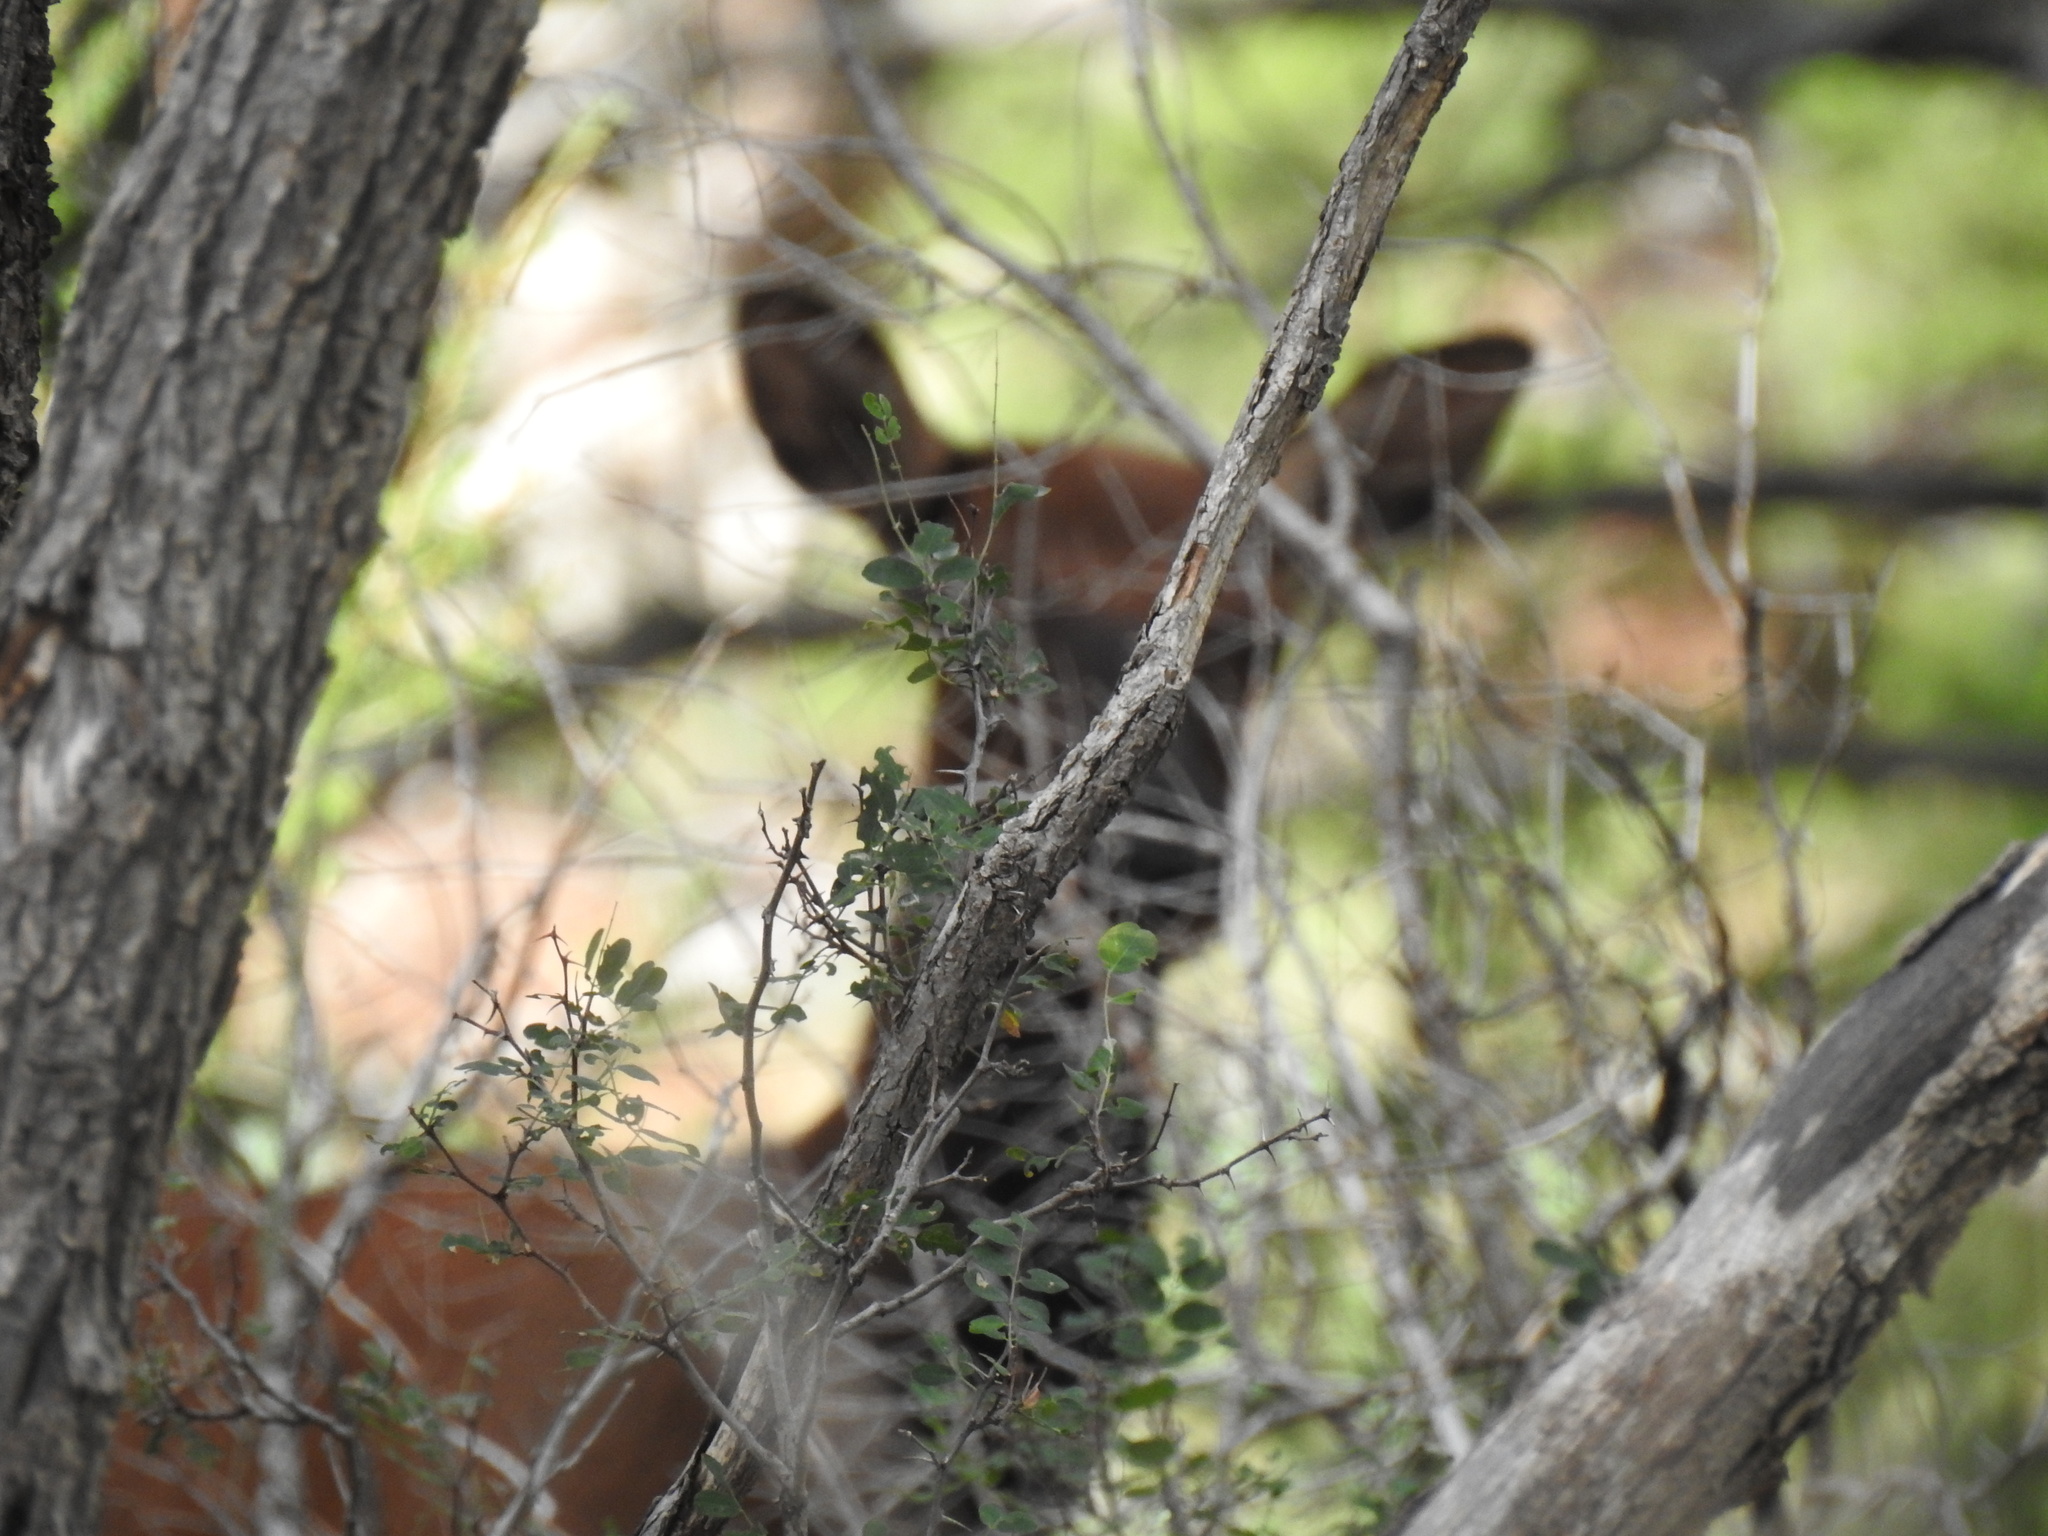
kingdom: Animalia
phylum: Chordata
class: Mammalia
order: Artiodactyla
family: Cervidae
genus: Cervus
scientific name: Cervus elaphus
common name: Red deer
